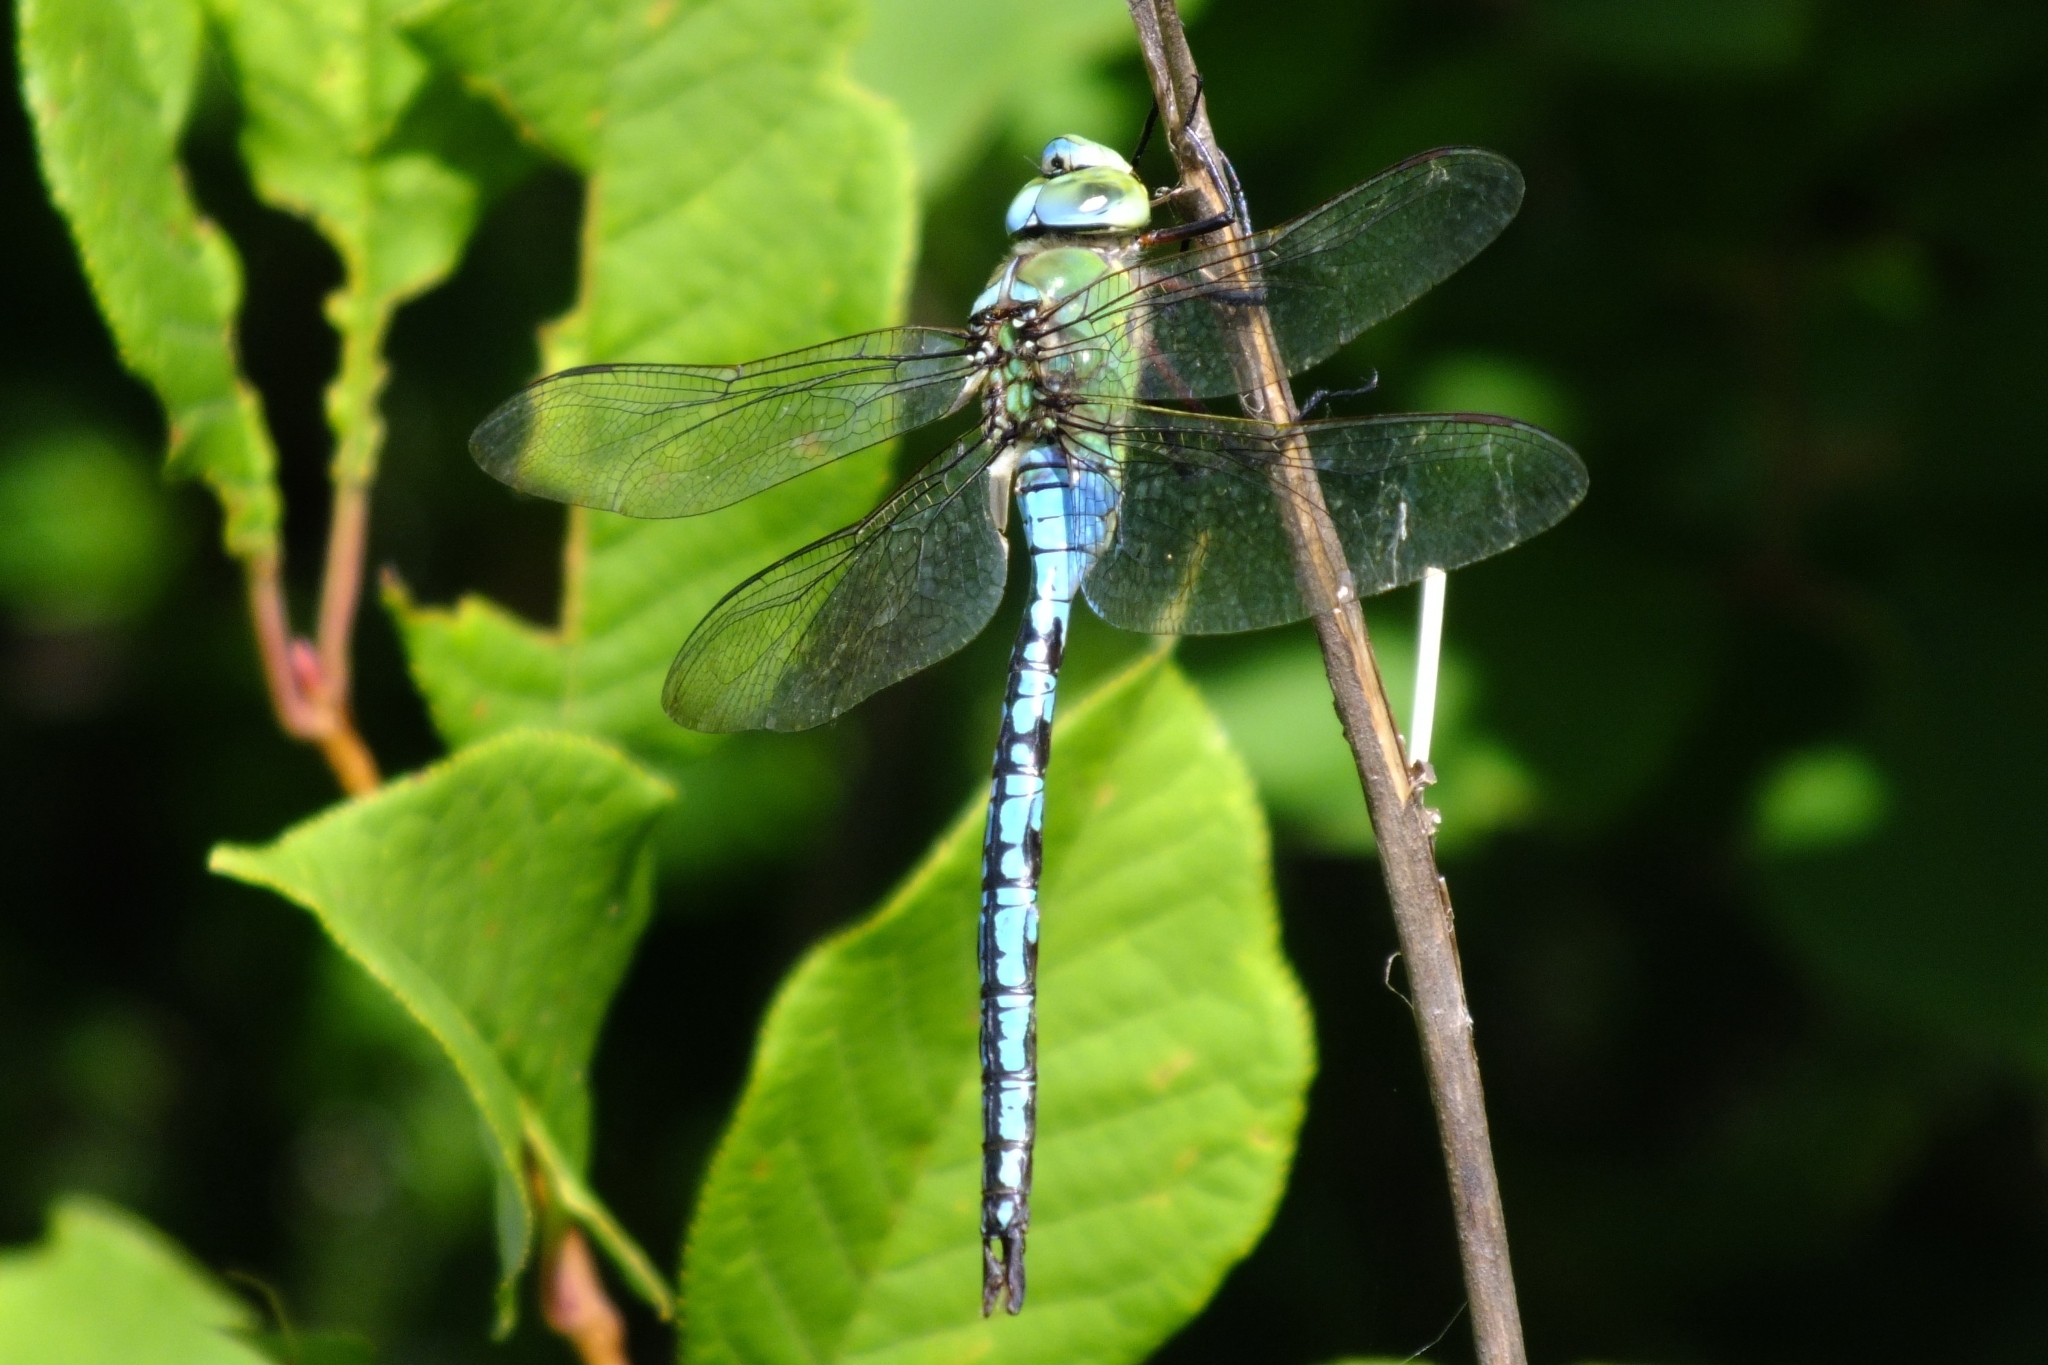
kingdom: Animalia
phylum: Arthropoda
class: Insecta
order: Odonata
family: Aeshnidae
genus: Anax
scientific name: Anax imperator
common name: Emperor dragonfly
